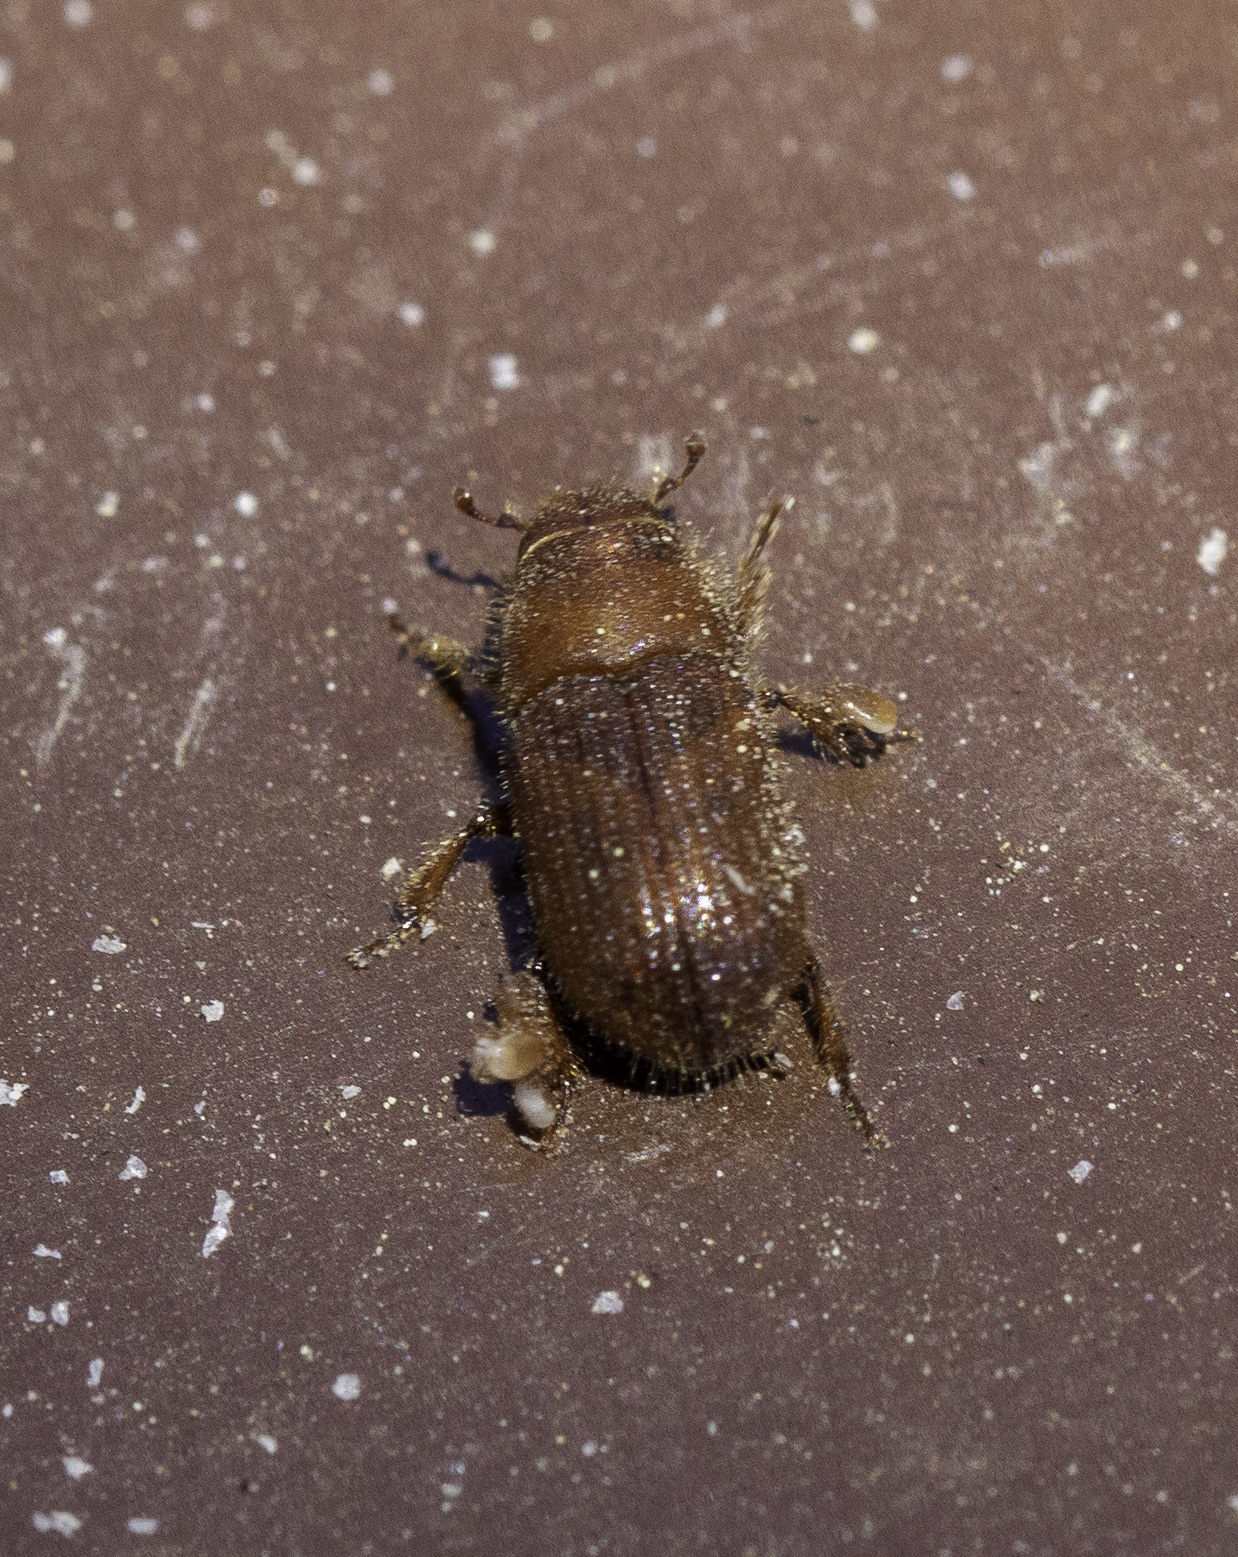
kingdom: Animalia
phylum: Arthropoda
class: Insecta
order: Coleoptera
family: Curculionidae
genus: Dendroctonus
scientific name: Dendroctonus valens
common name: Red turpentine beetle
